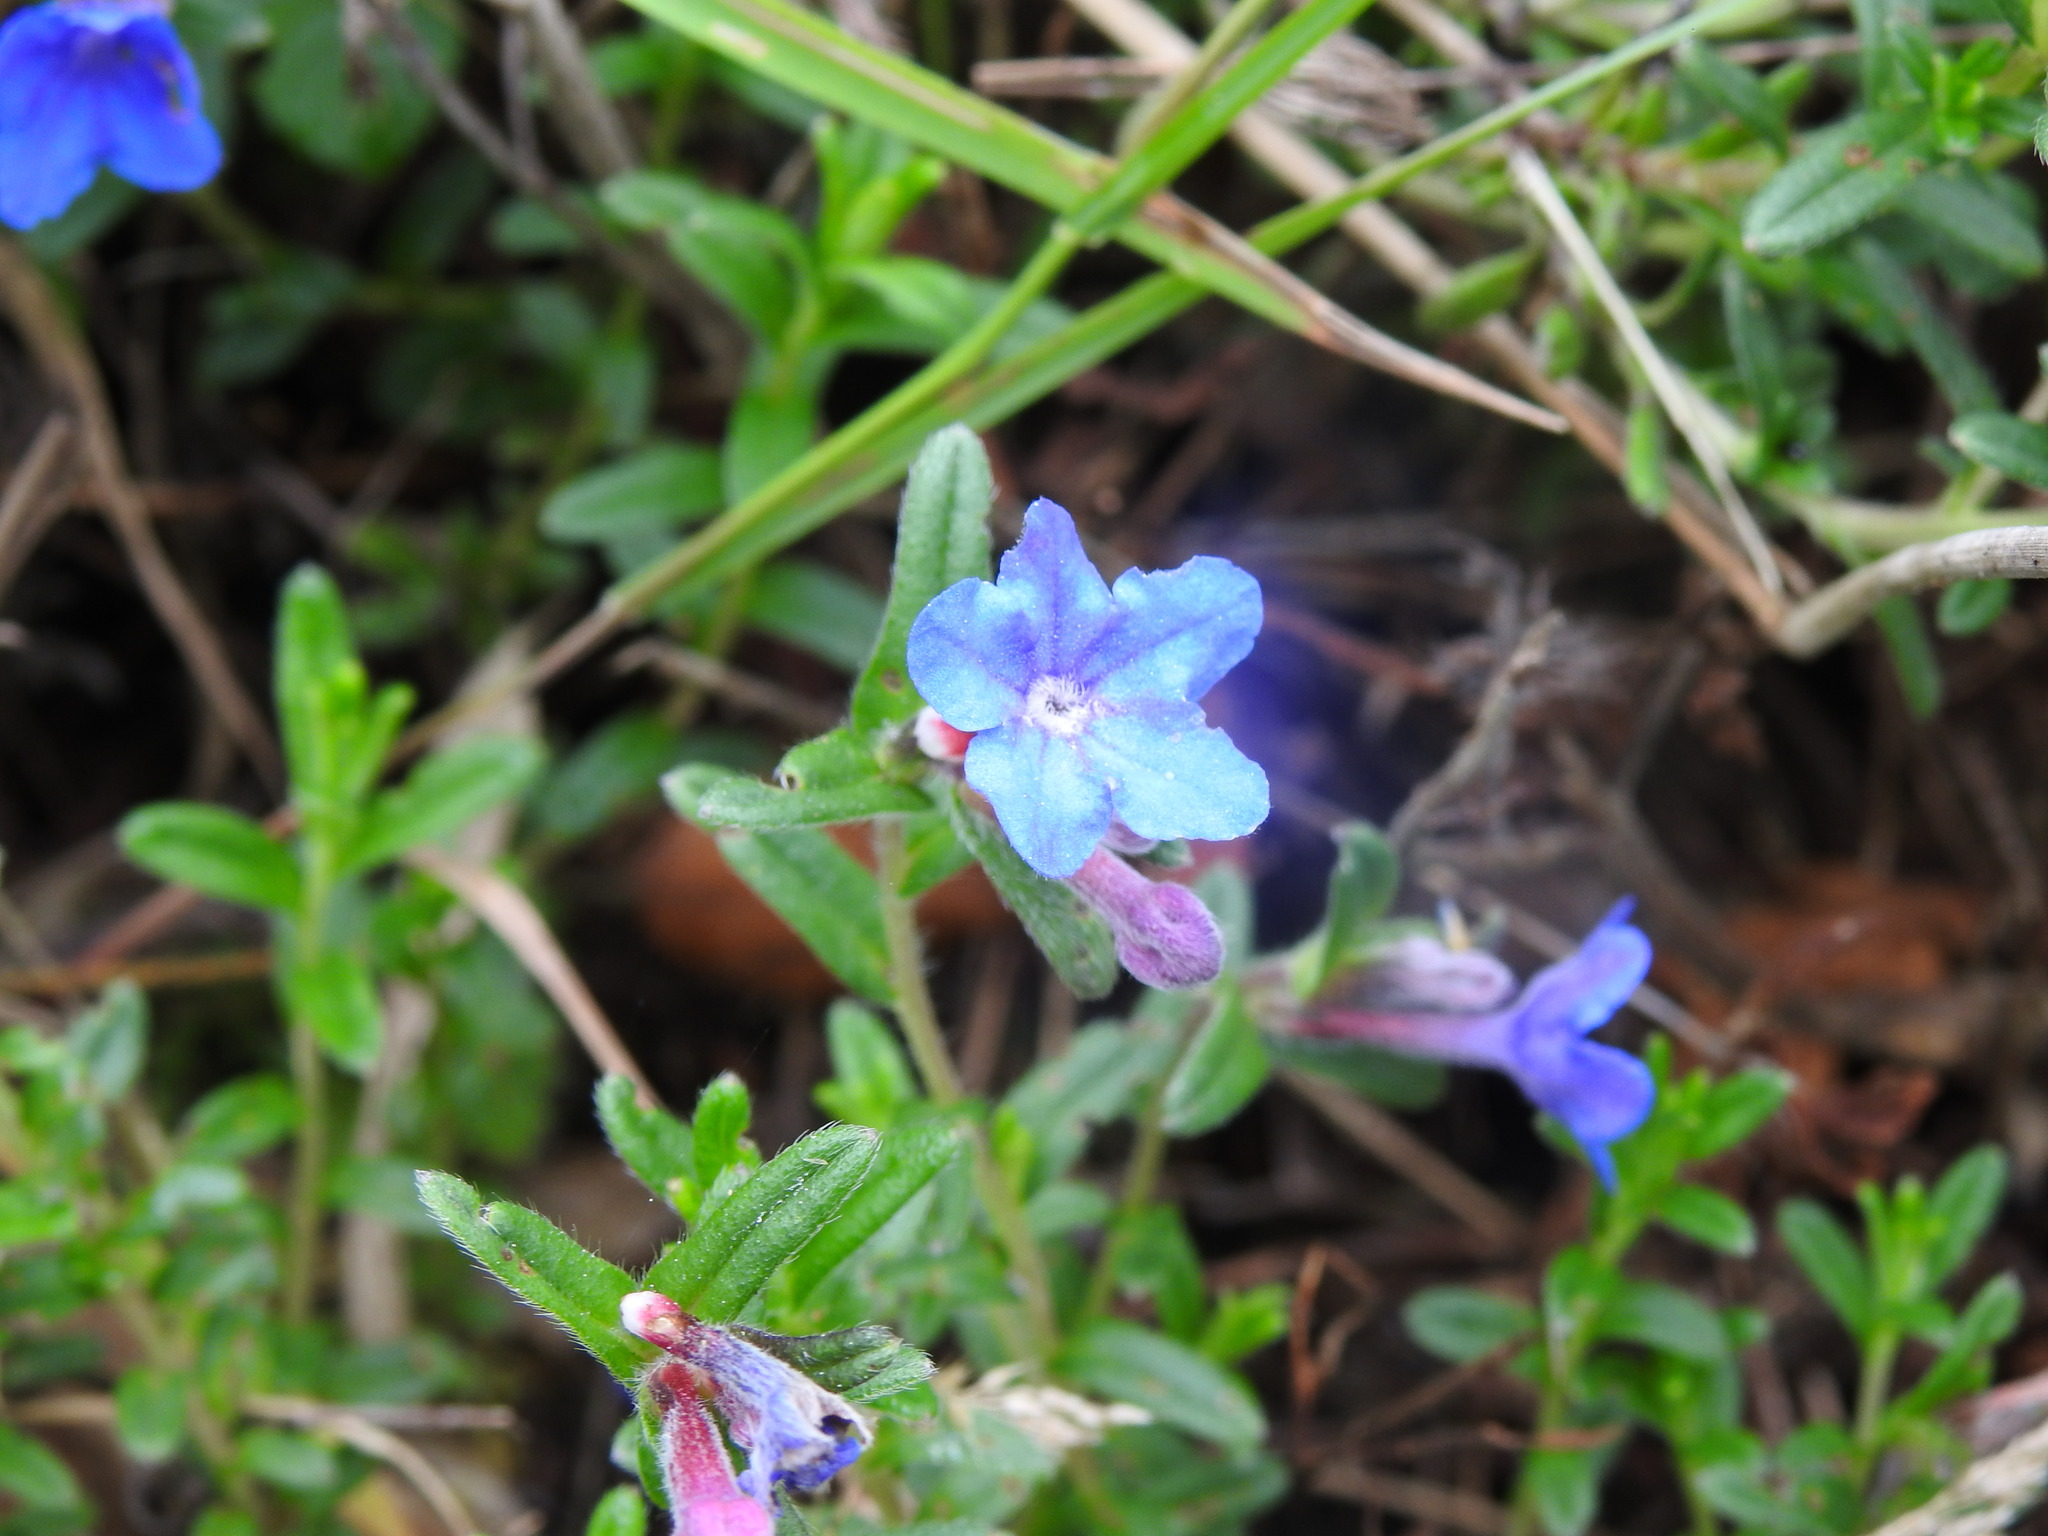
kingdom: Plantae
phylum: Tracheophyta
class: Magnoliopsida
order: Boraginales
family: Boraginaceae
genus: Glandora
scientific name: Glandora prostrata
